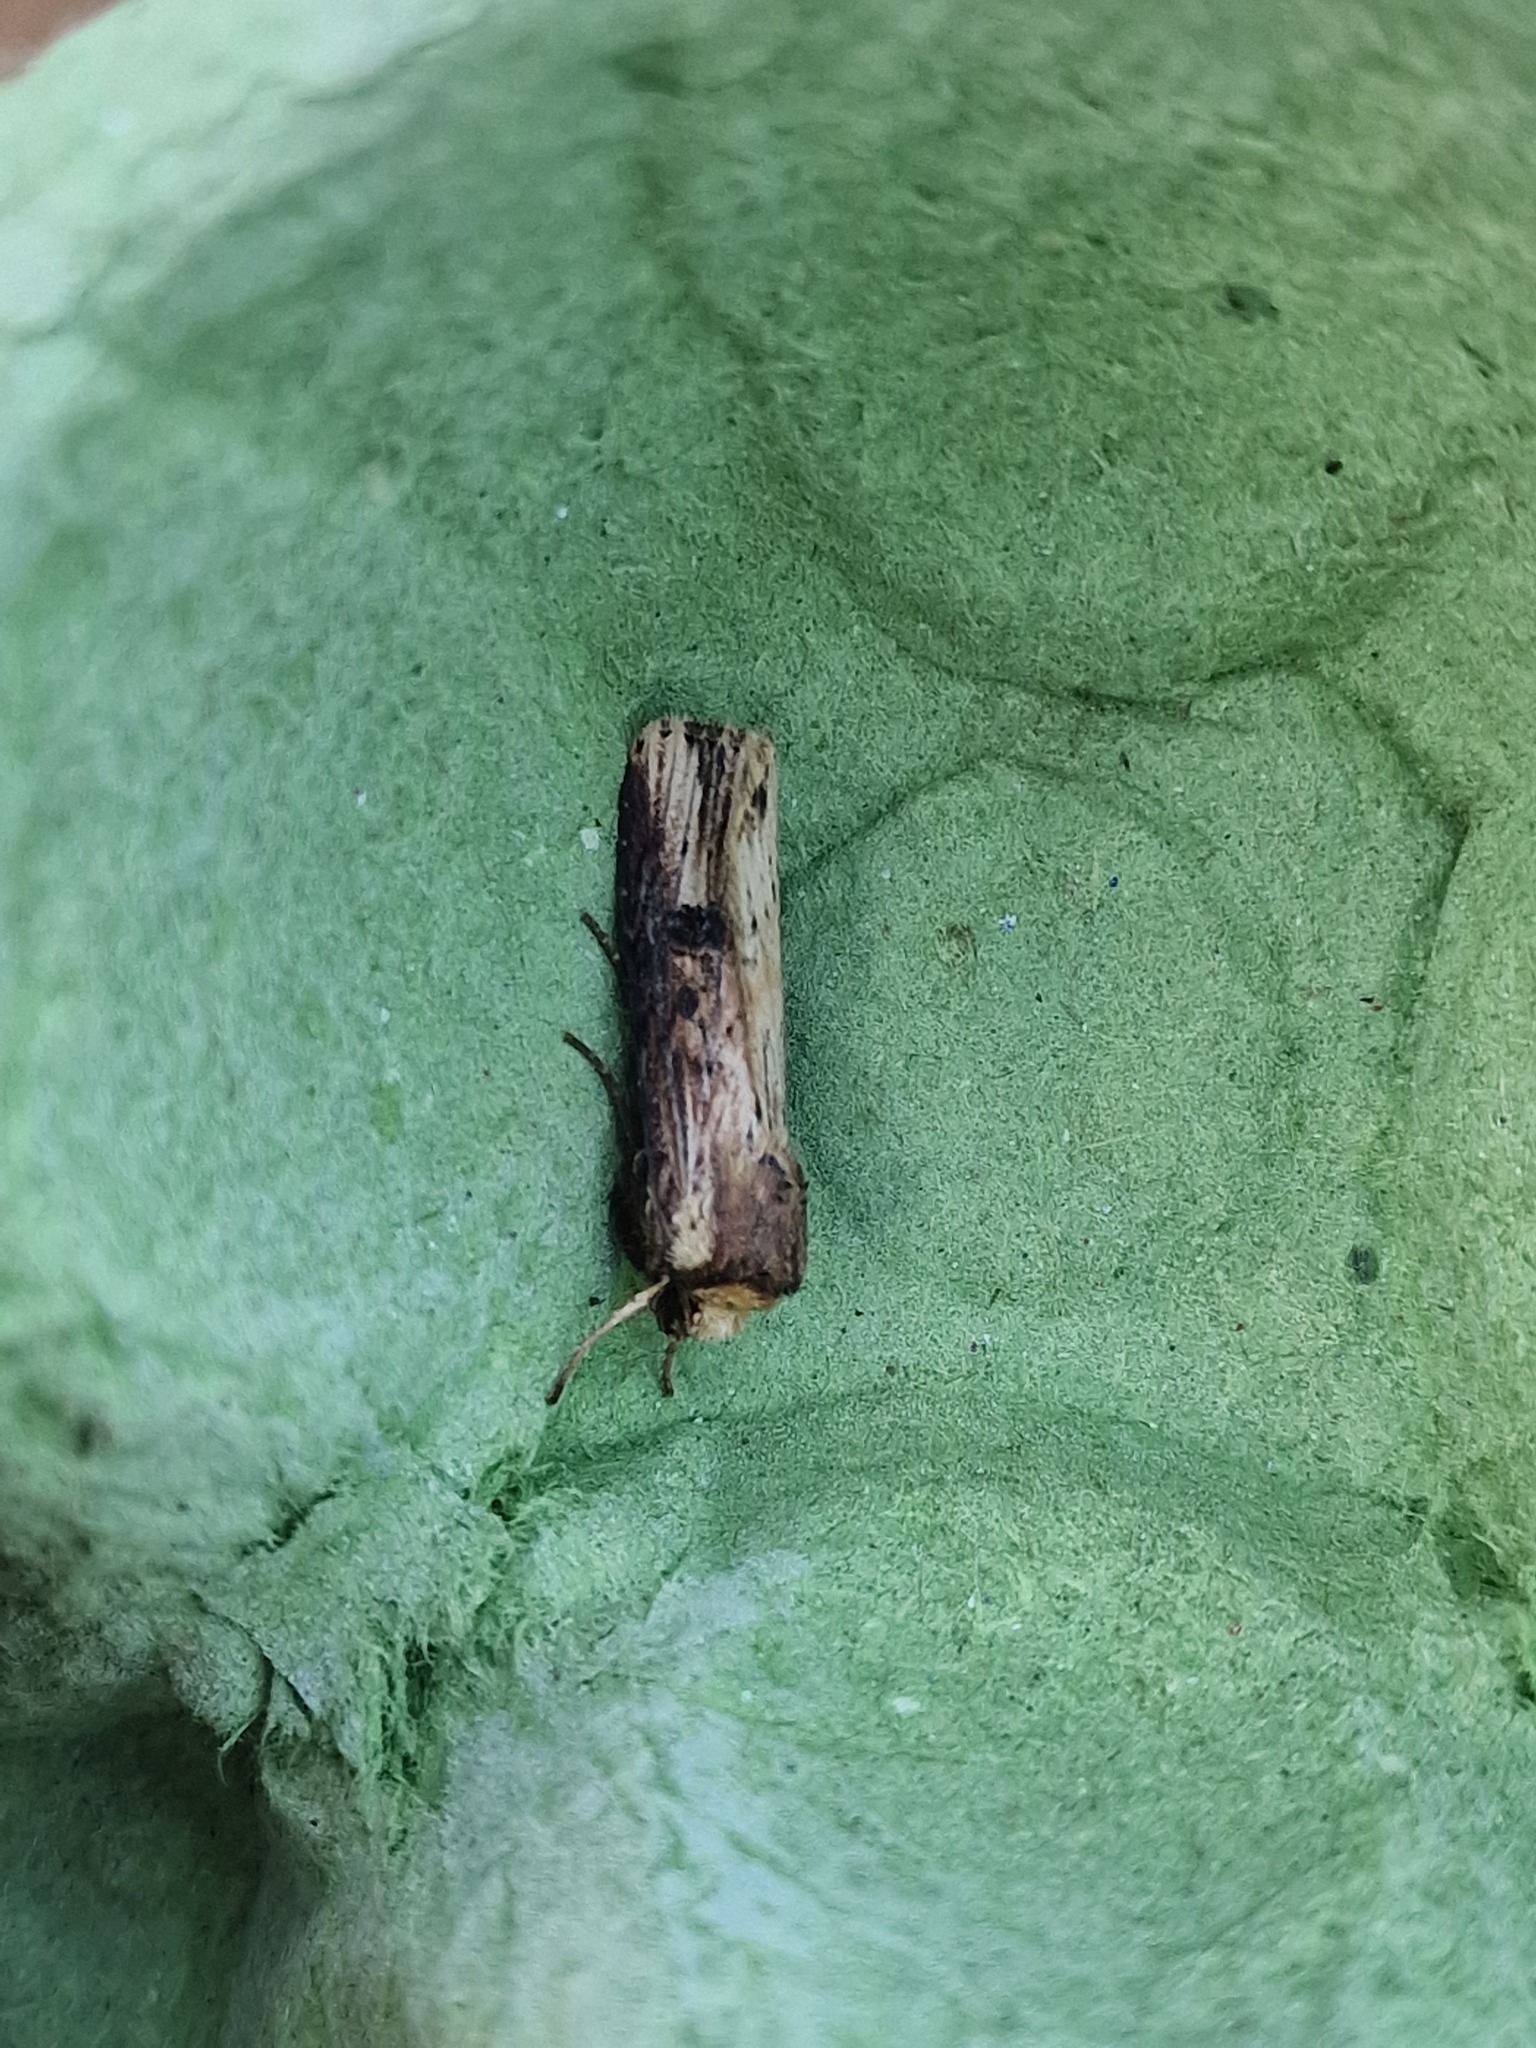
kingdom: Animalia
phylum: Arthropoda
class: Insecta
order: Lepidoptera
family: Noctuidae
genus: Axylia
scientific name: Axylia putris
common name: Flame
